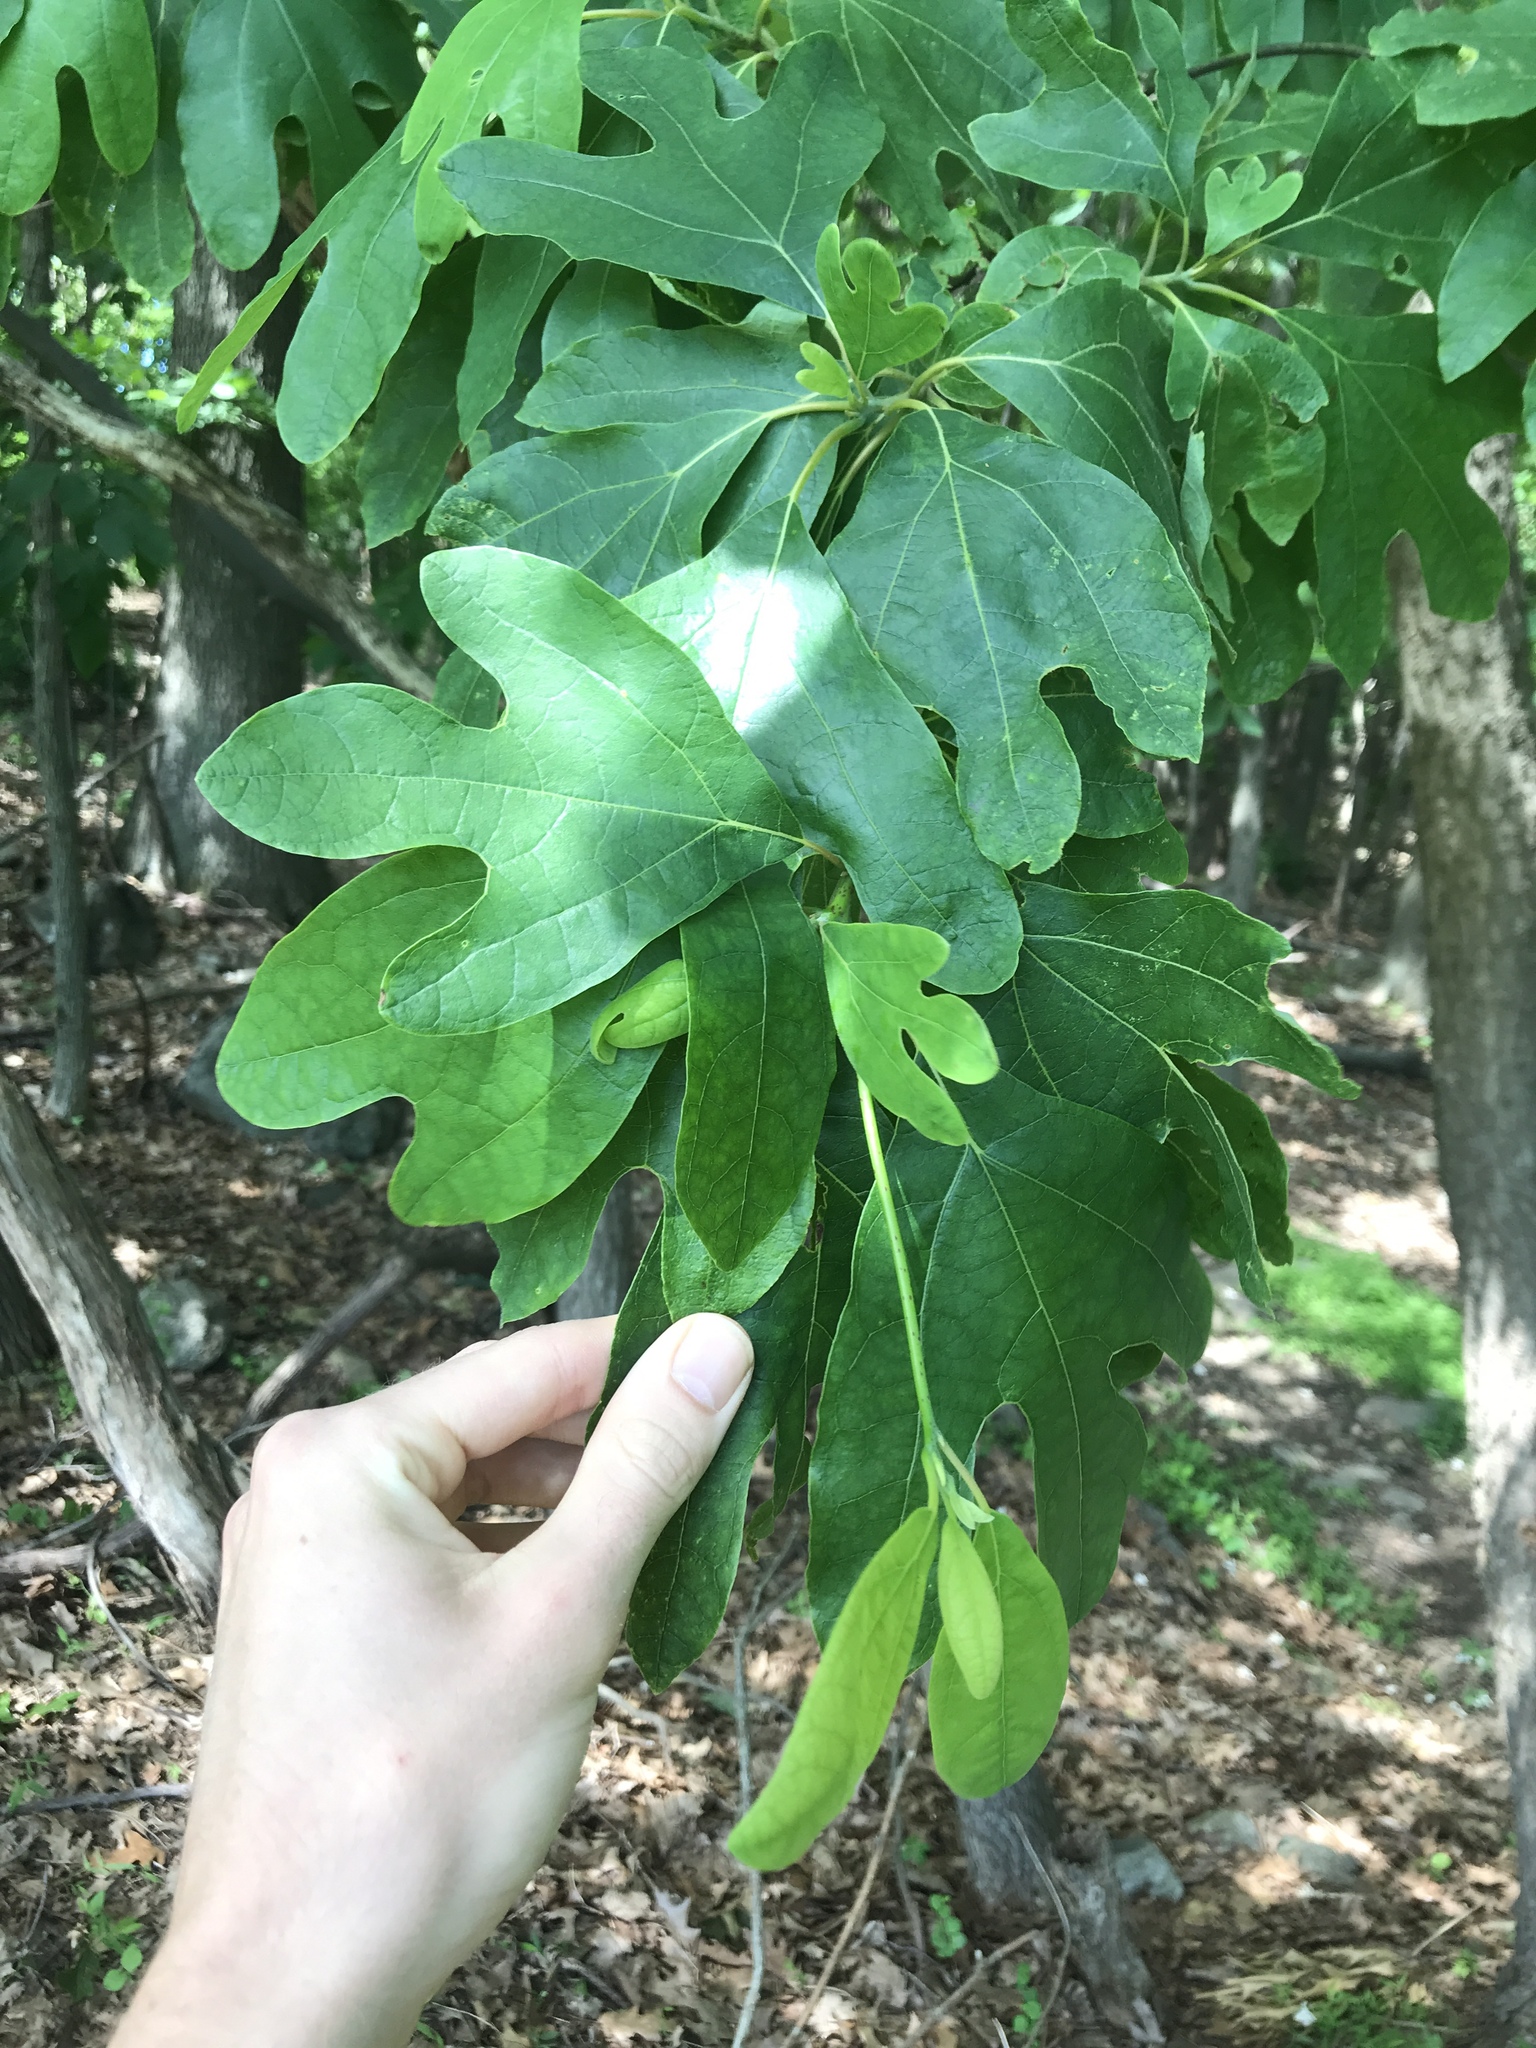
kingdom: Plantae
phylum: Tracheophyta
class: Magnoliopsida
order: Laurales
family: Lauraceae
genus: Sassafras
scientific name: Sassafras albidum
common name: Sassafras
